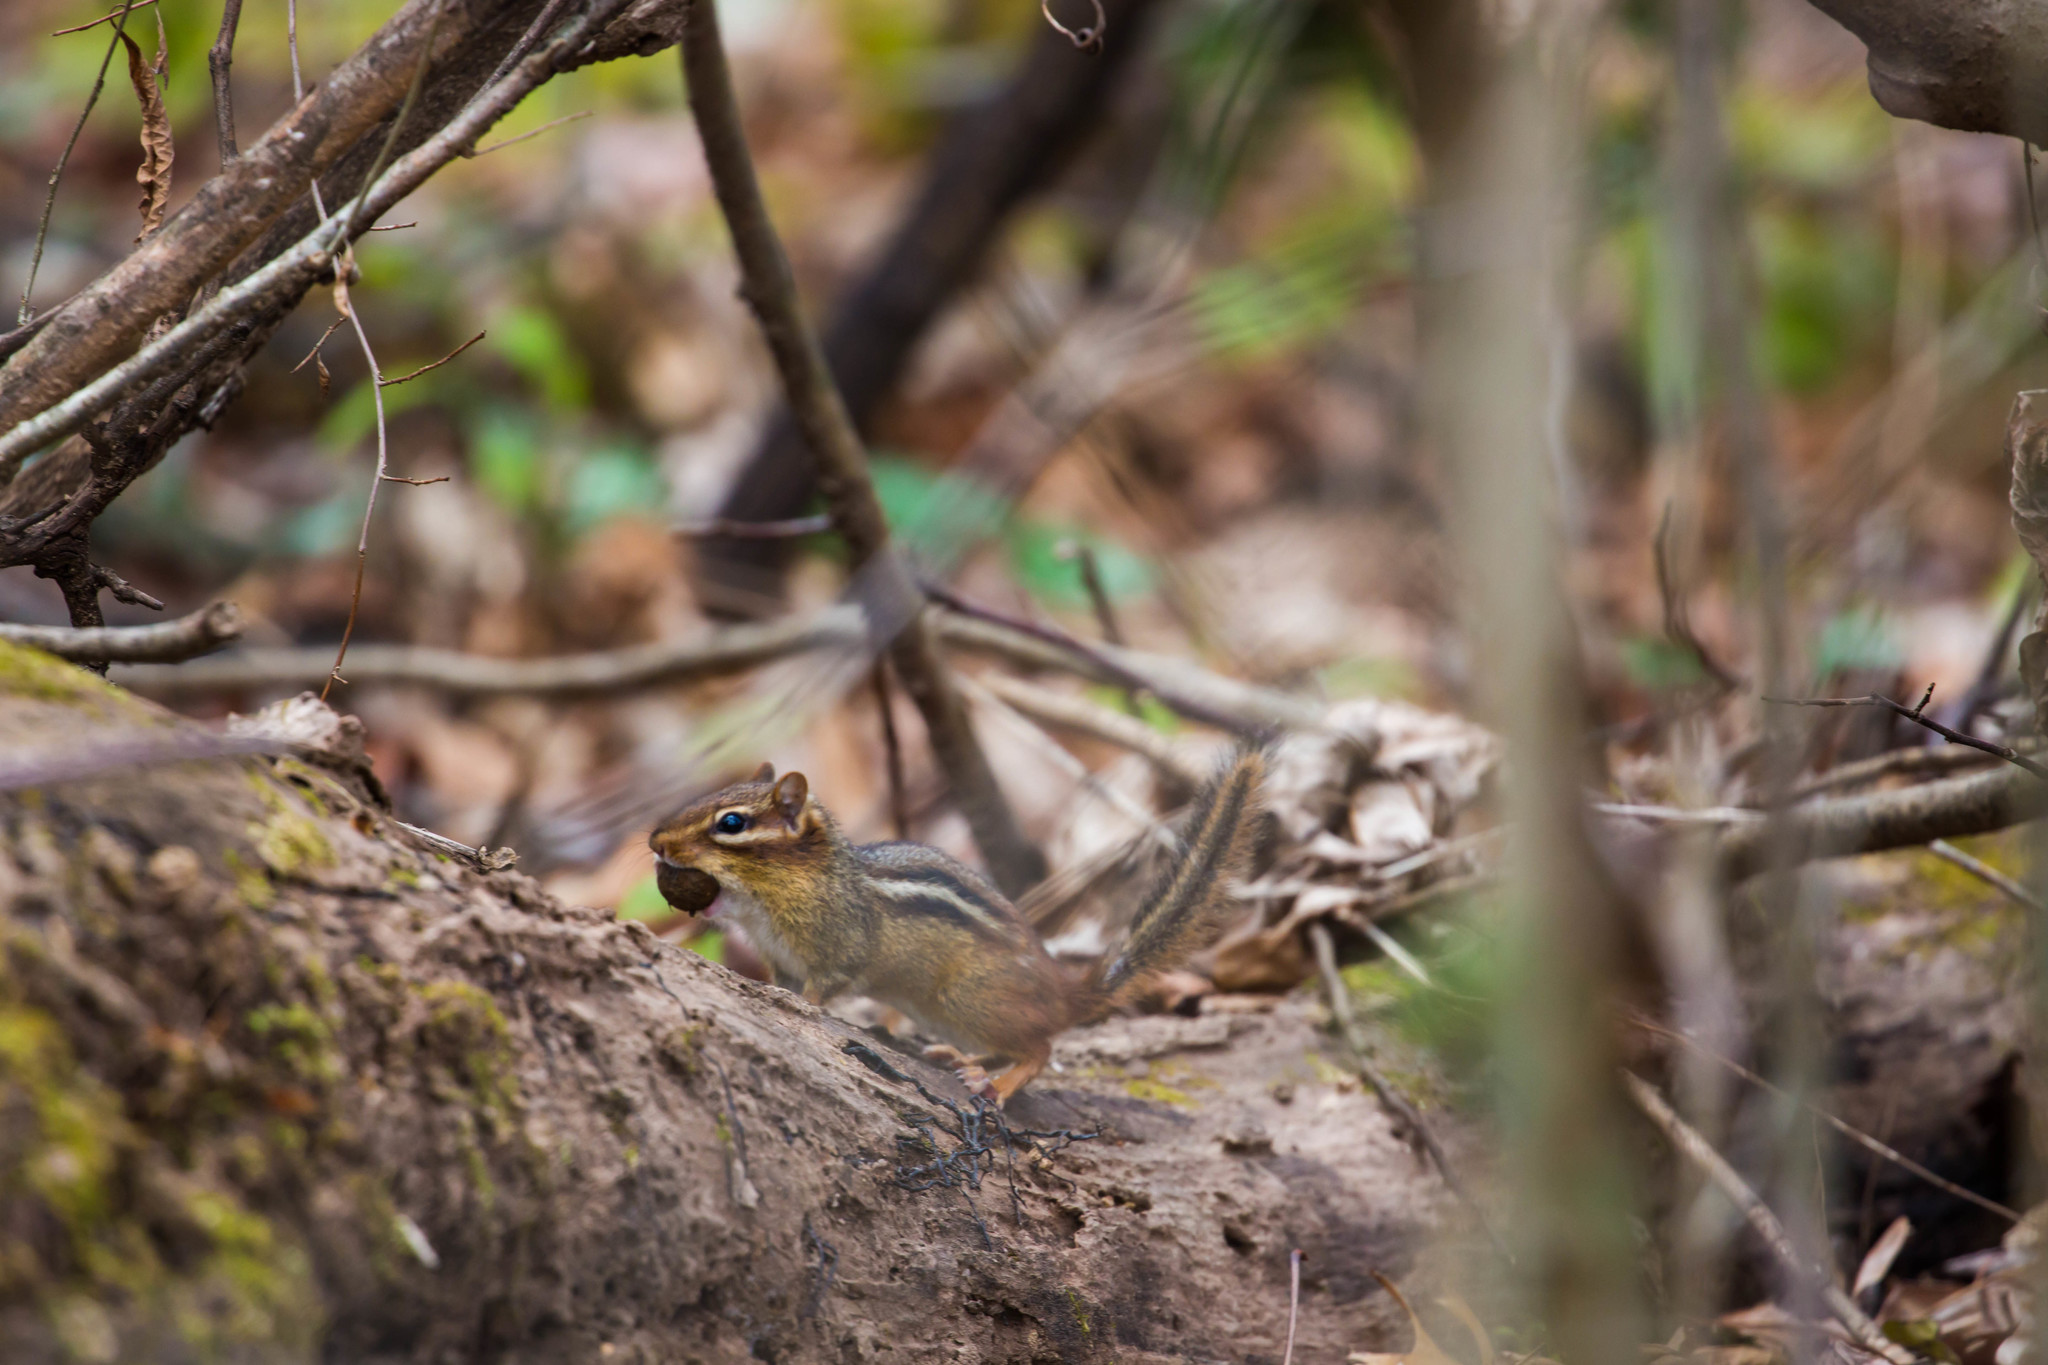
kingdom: Animalia
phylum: Chordata
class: Mammalia
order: Rodentia
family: Sciuridae
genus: Tamias
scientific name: Tamias striatus
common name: Eastern chipmunk
